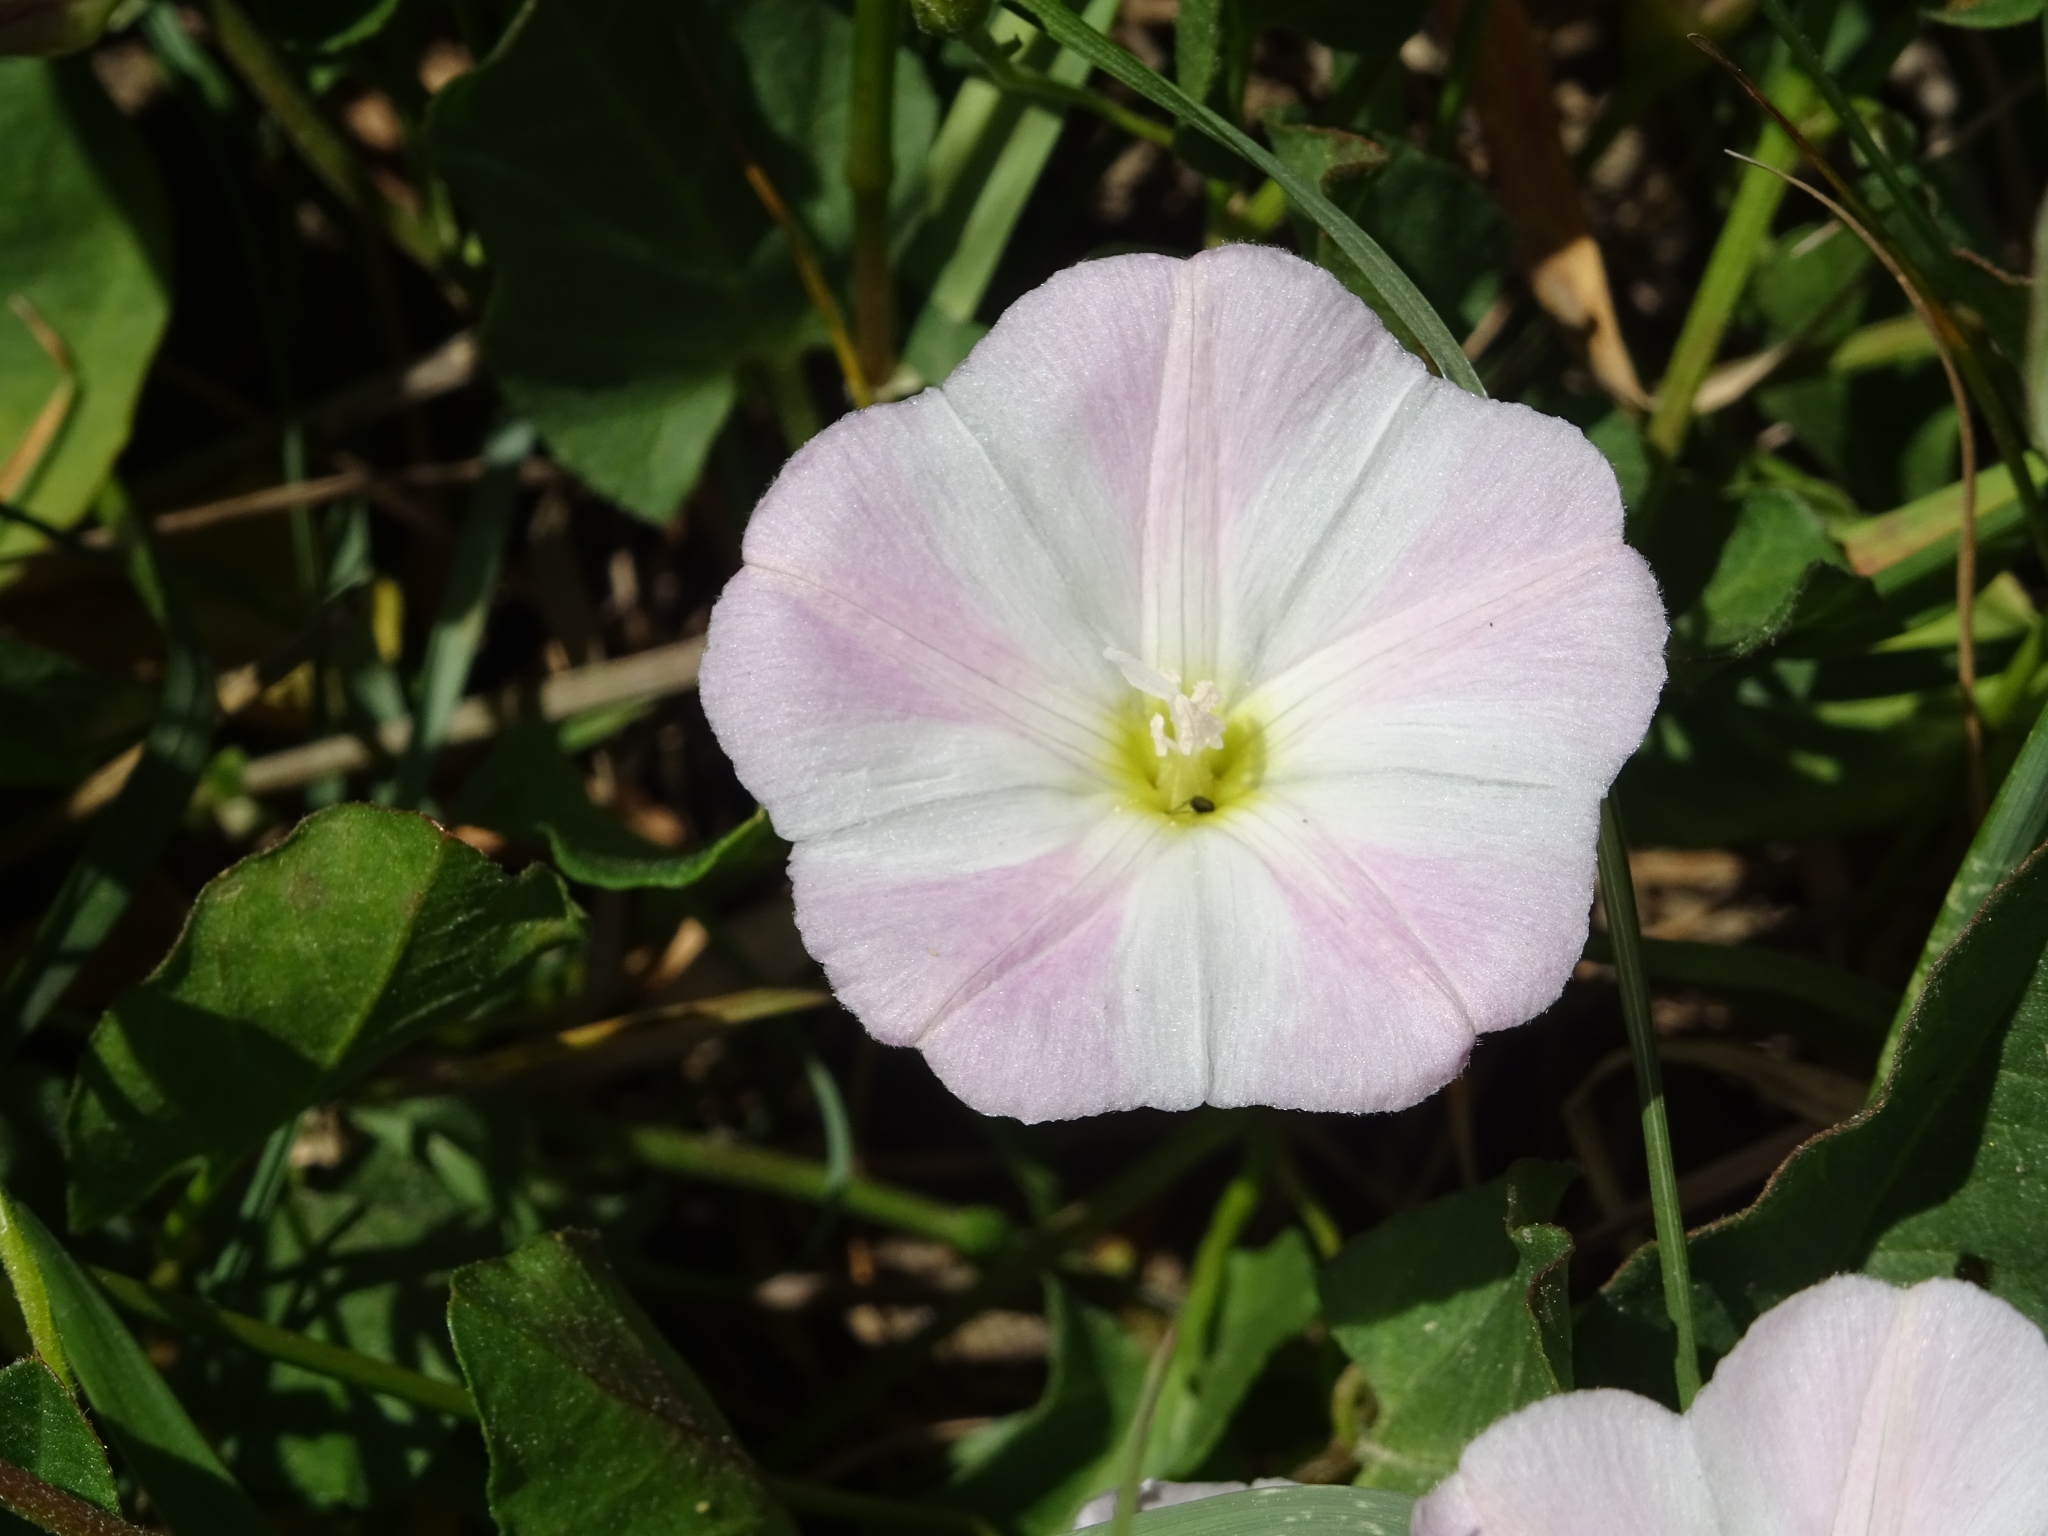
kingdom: Plantae
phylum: Tracheophyta
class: Magnoliopsida
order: Solanales
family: Convolvulaceae
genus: Convolvulus
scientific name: Convolvulus arvensis
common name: Field bindweed
